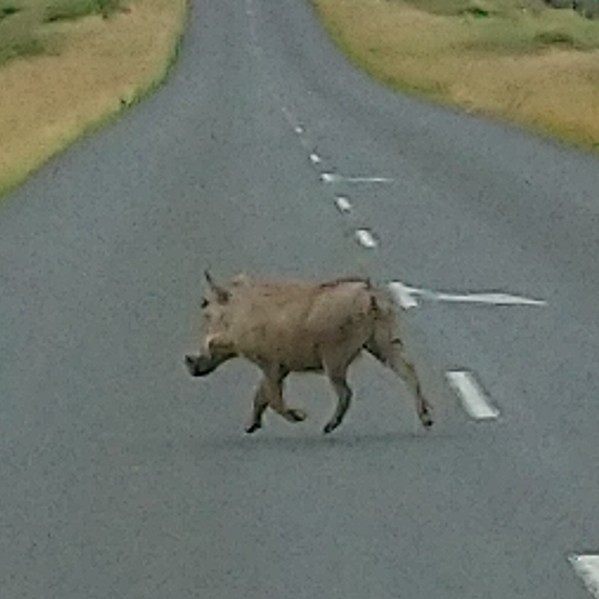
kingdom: Animalia
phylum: Chordata
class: Mammalia
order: Artiodactyla
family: Suidae
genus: Phacochoerus
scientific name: Phacochoerus africanus
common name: Common warthog
